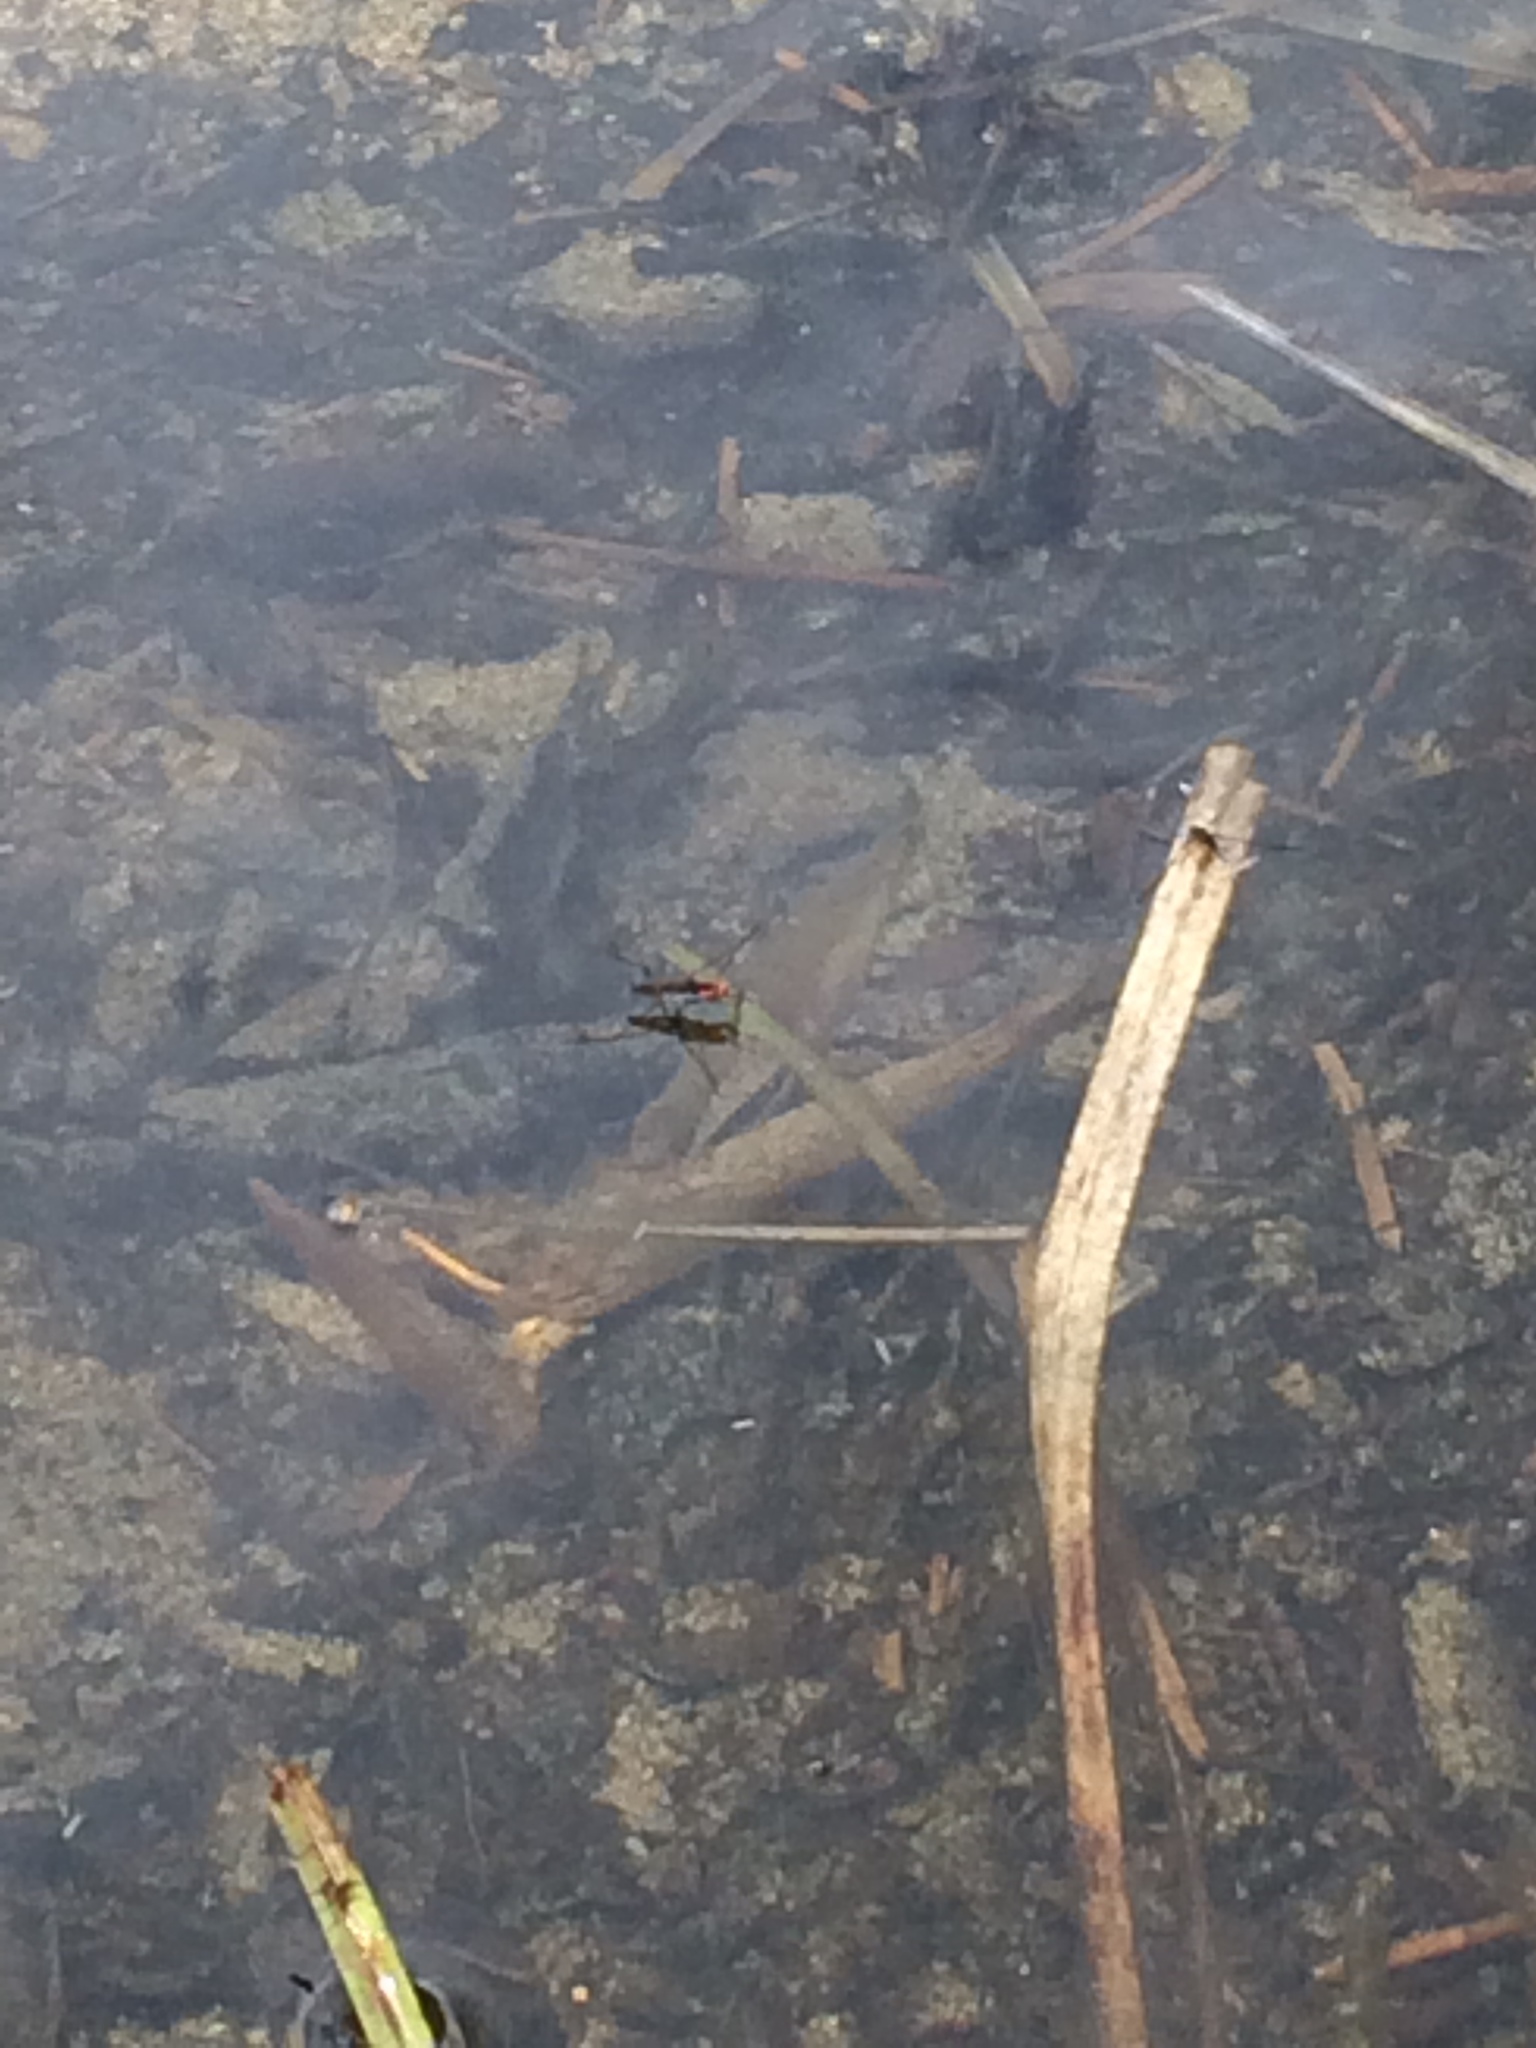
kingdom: Animalia
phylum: Arthropoda
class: Insecta
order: Hemiptera
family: Gerridae
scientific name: Gerridae
